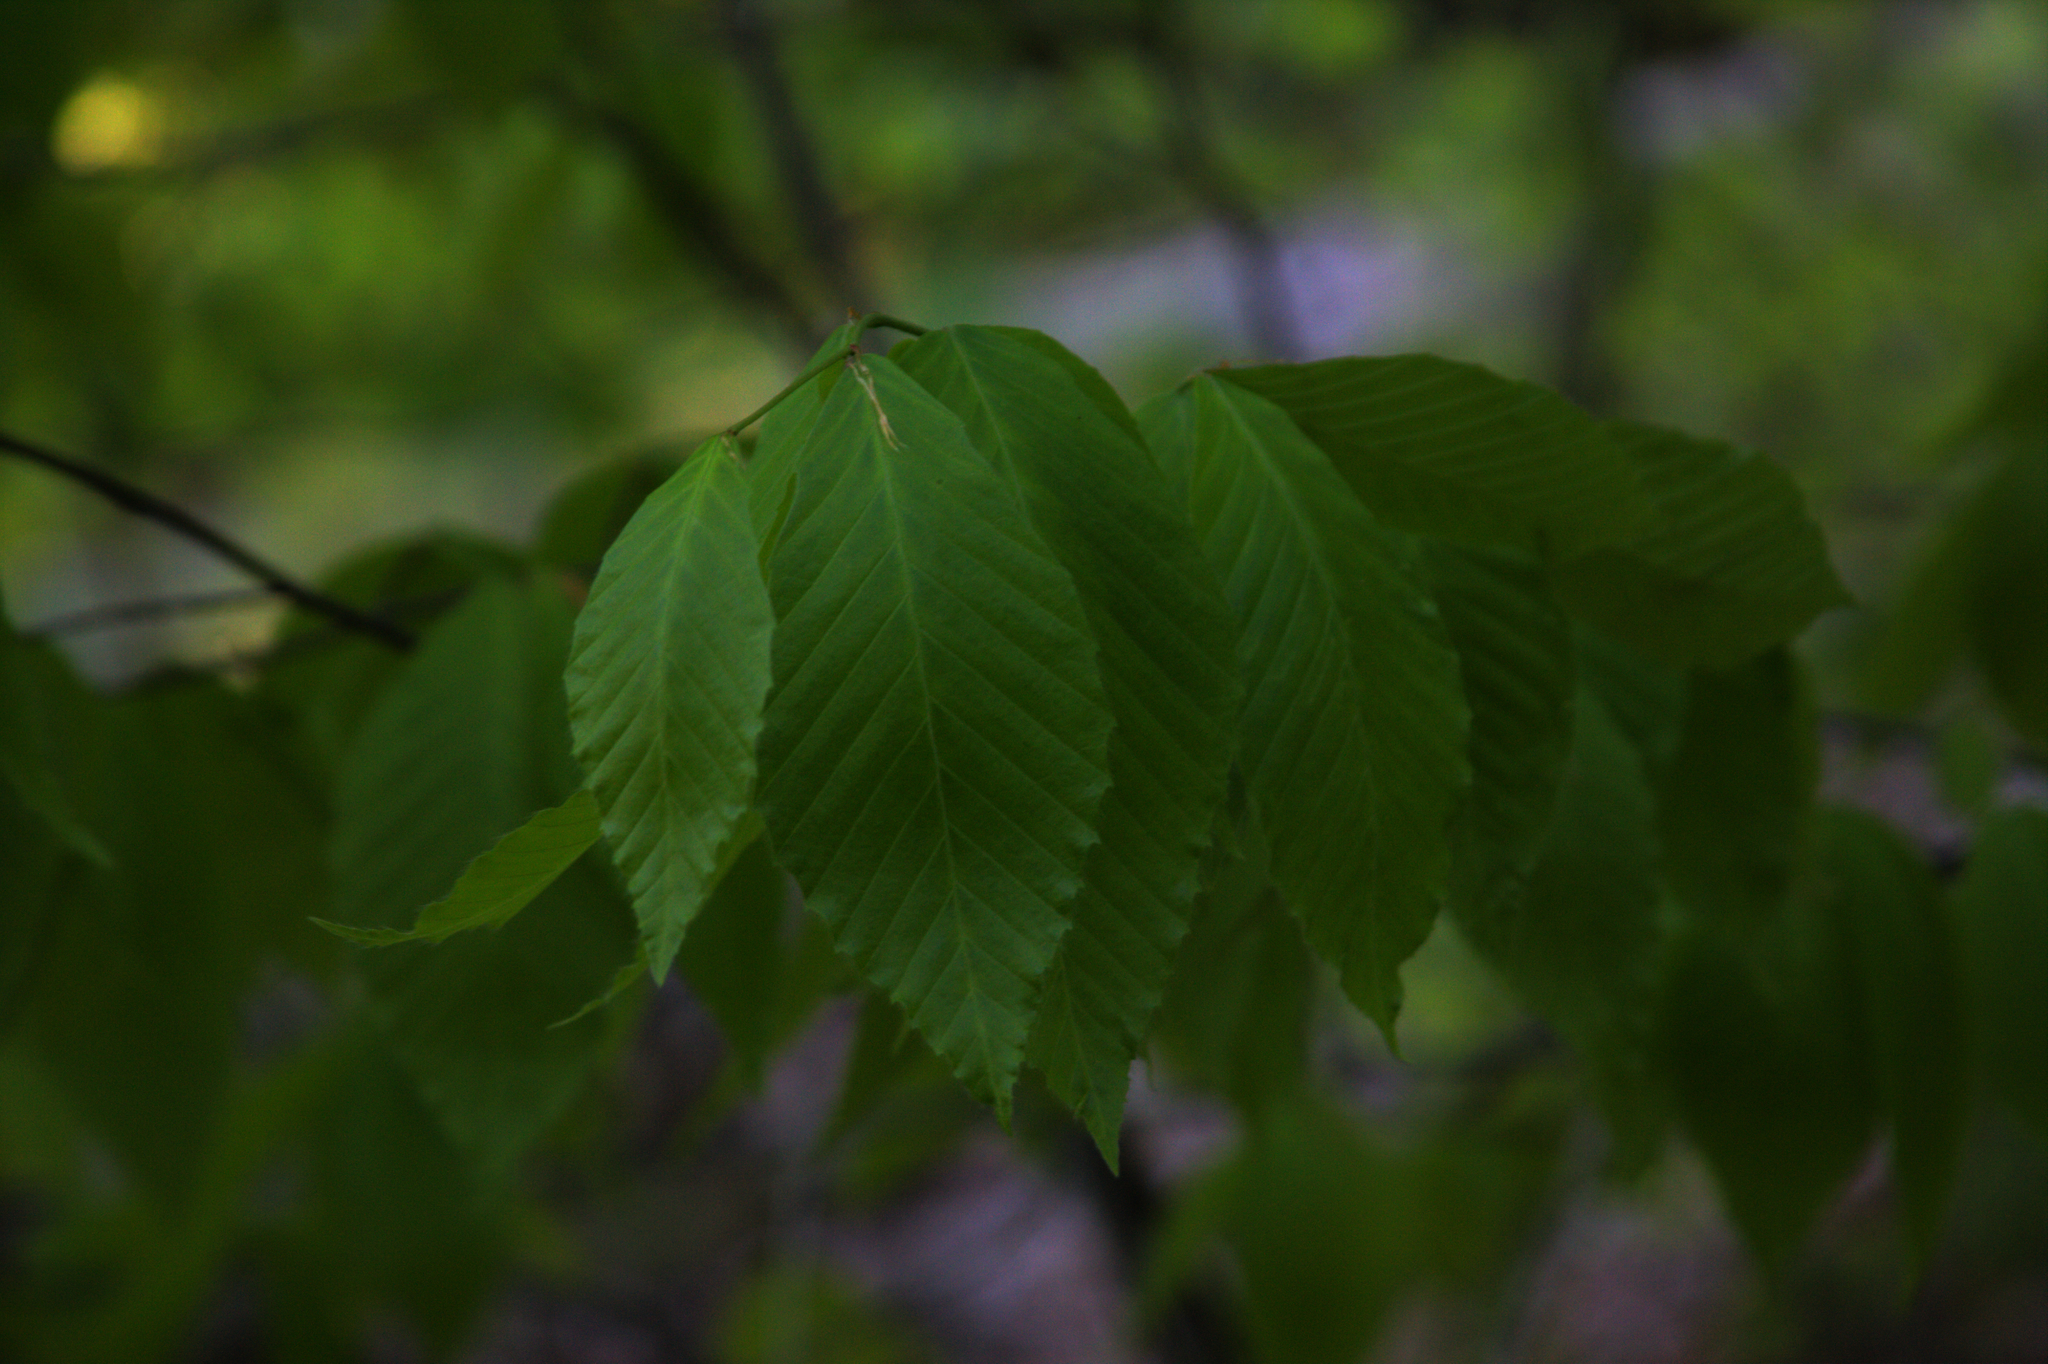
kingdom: Plantae
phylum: Tracheophyta
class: Magnoliopsida
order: Fagales
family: Fagaceae
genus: Fagus
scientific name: Fagus grandifolia
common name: American beech
